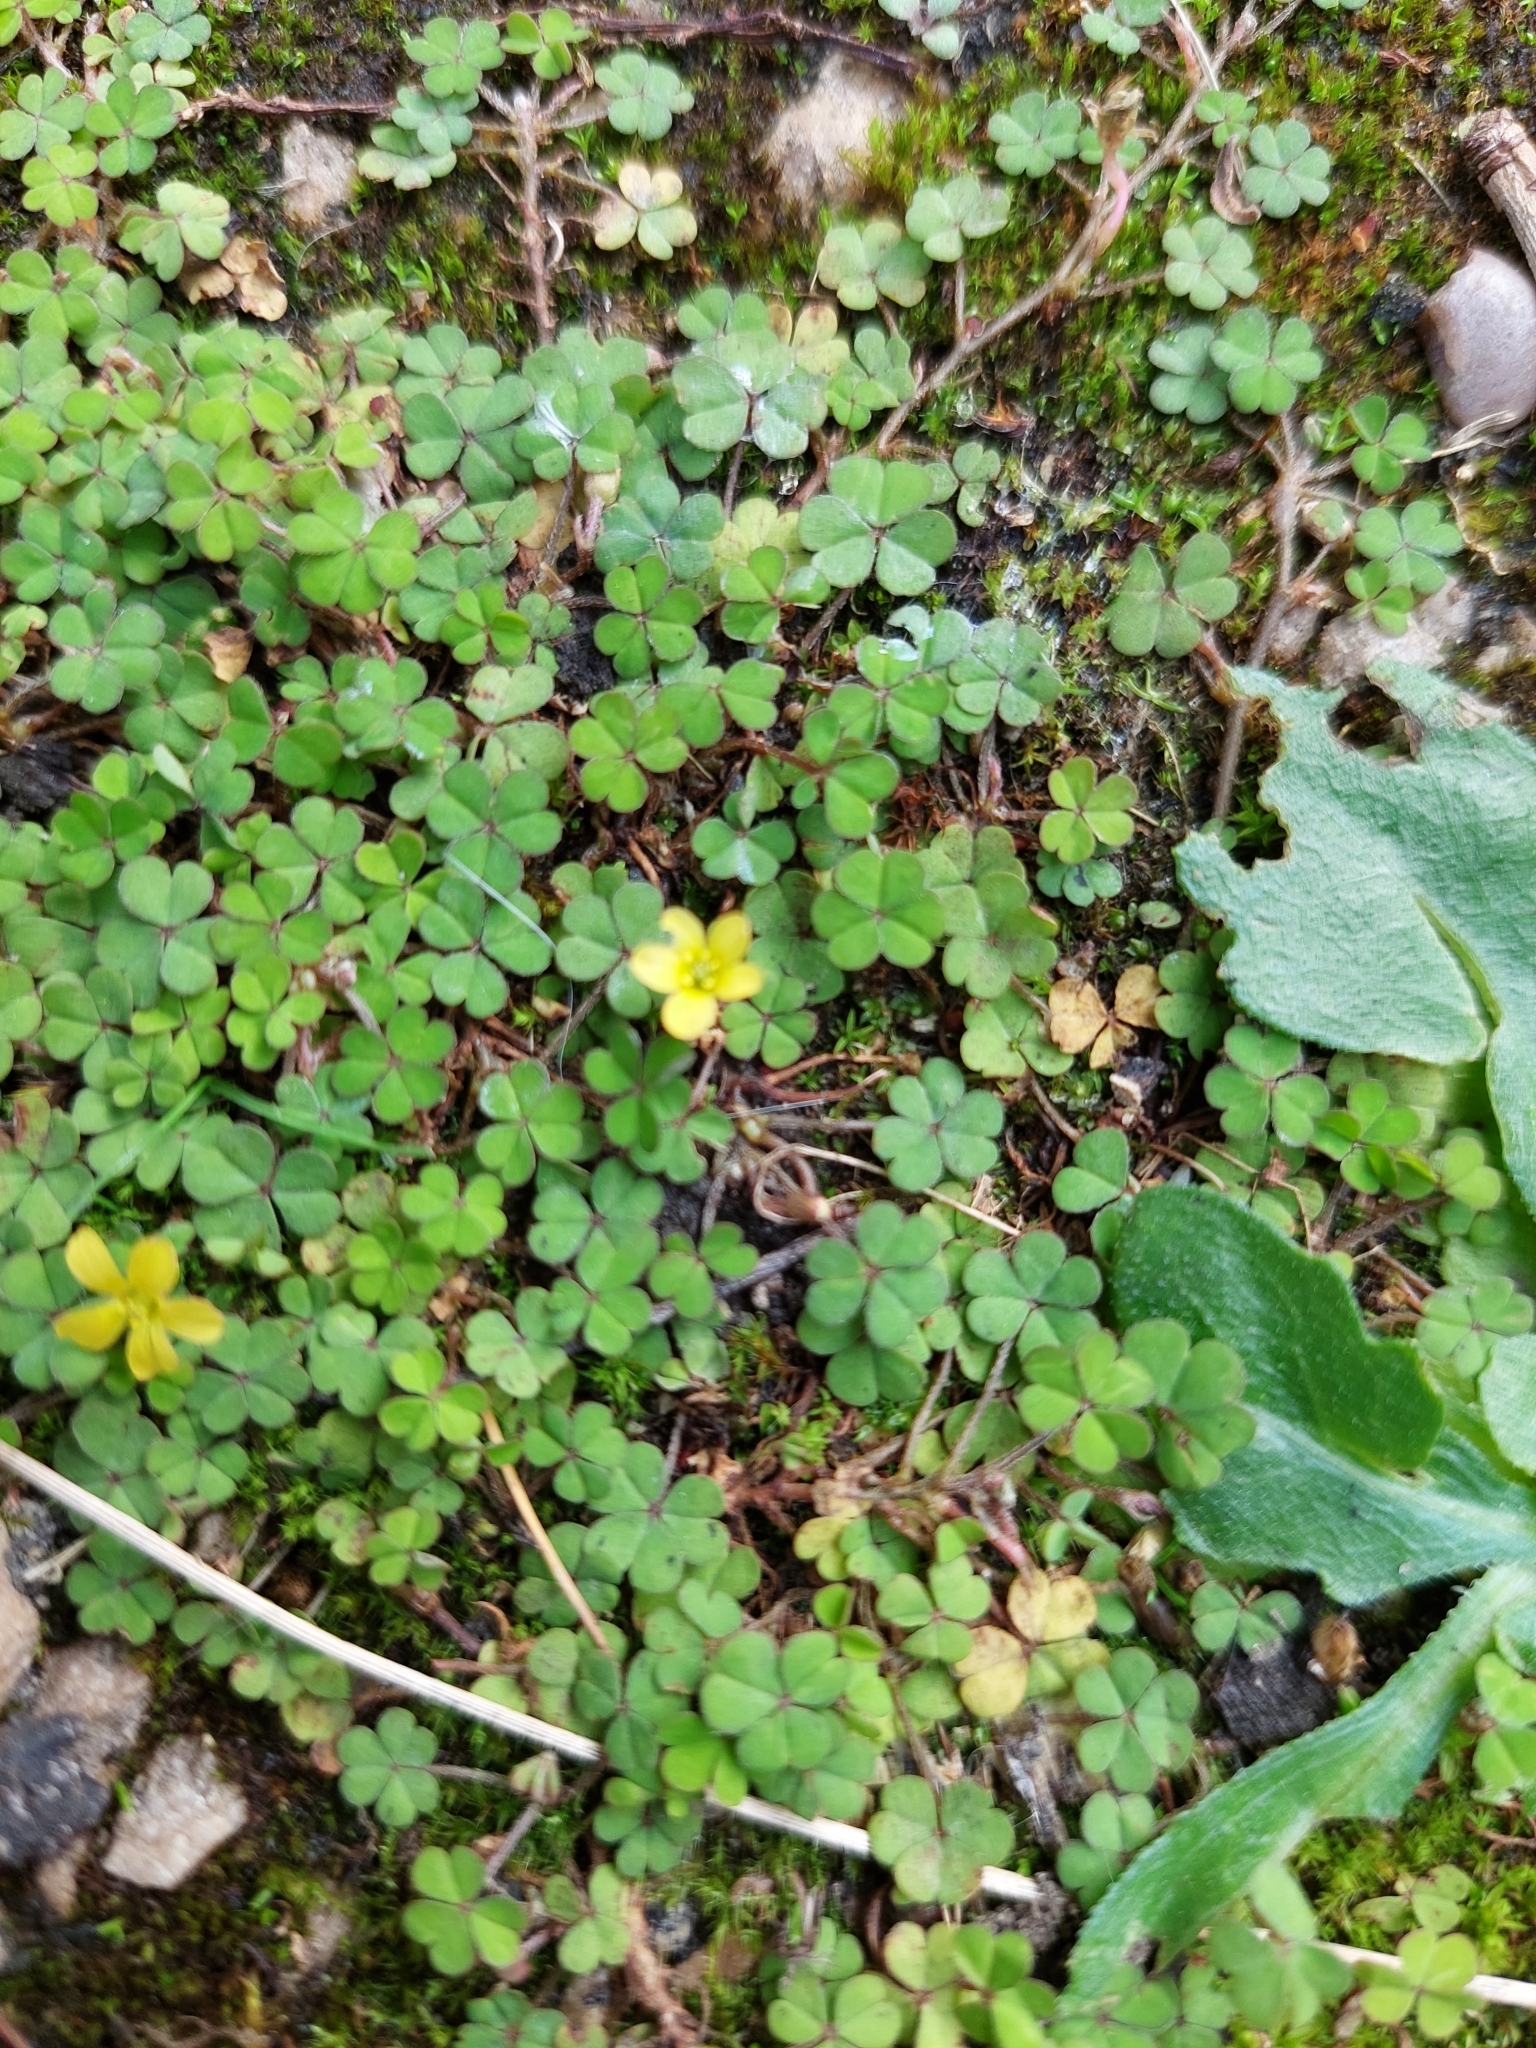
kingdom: Plantae
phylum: Tracheophyta
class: Magnoliopsida
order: Oxalidales
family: Oxalidaceae
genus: Oxalis
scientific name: Oxalis exilis
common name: Least yellow-sorrel
